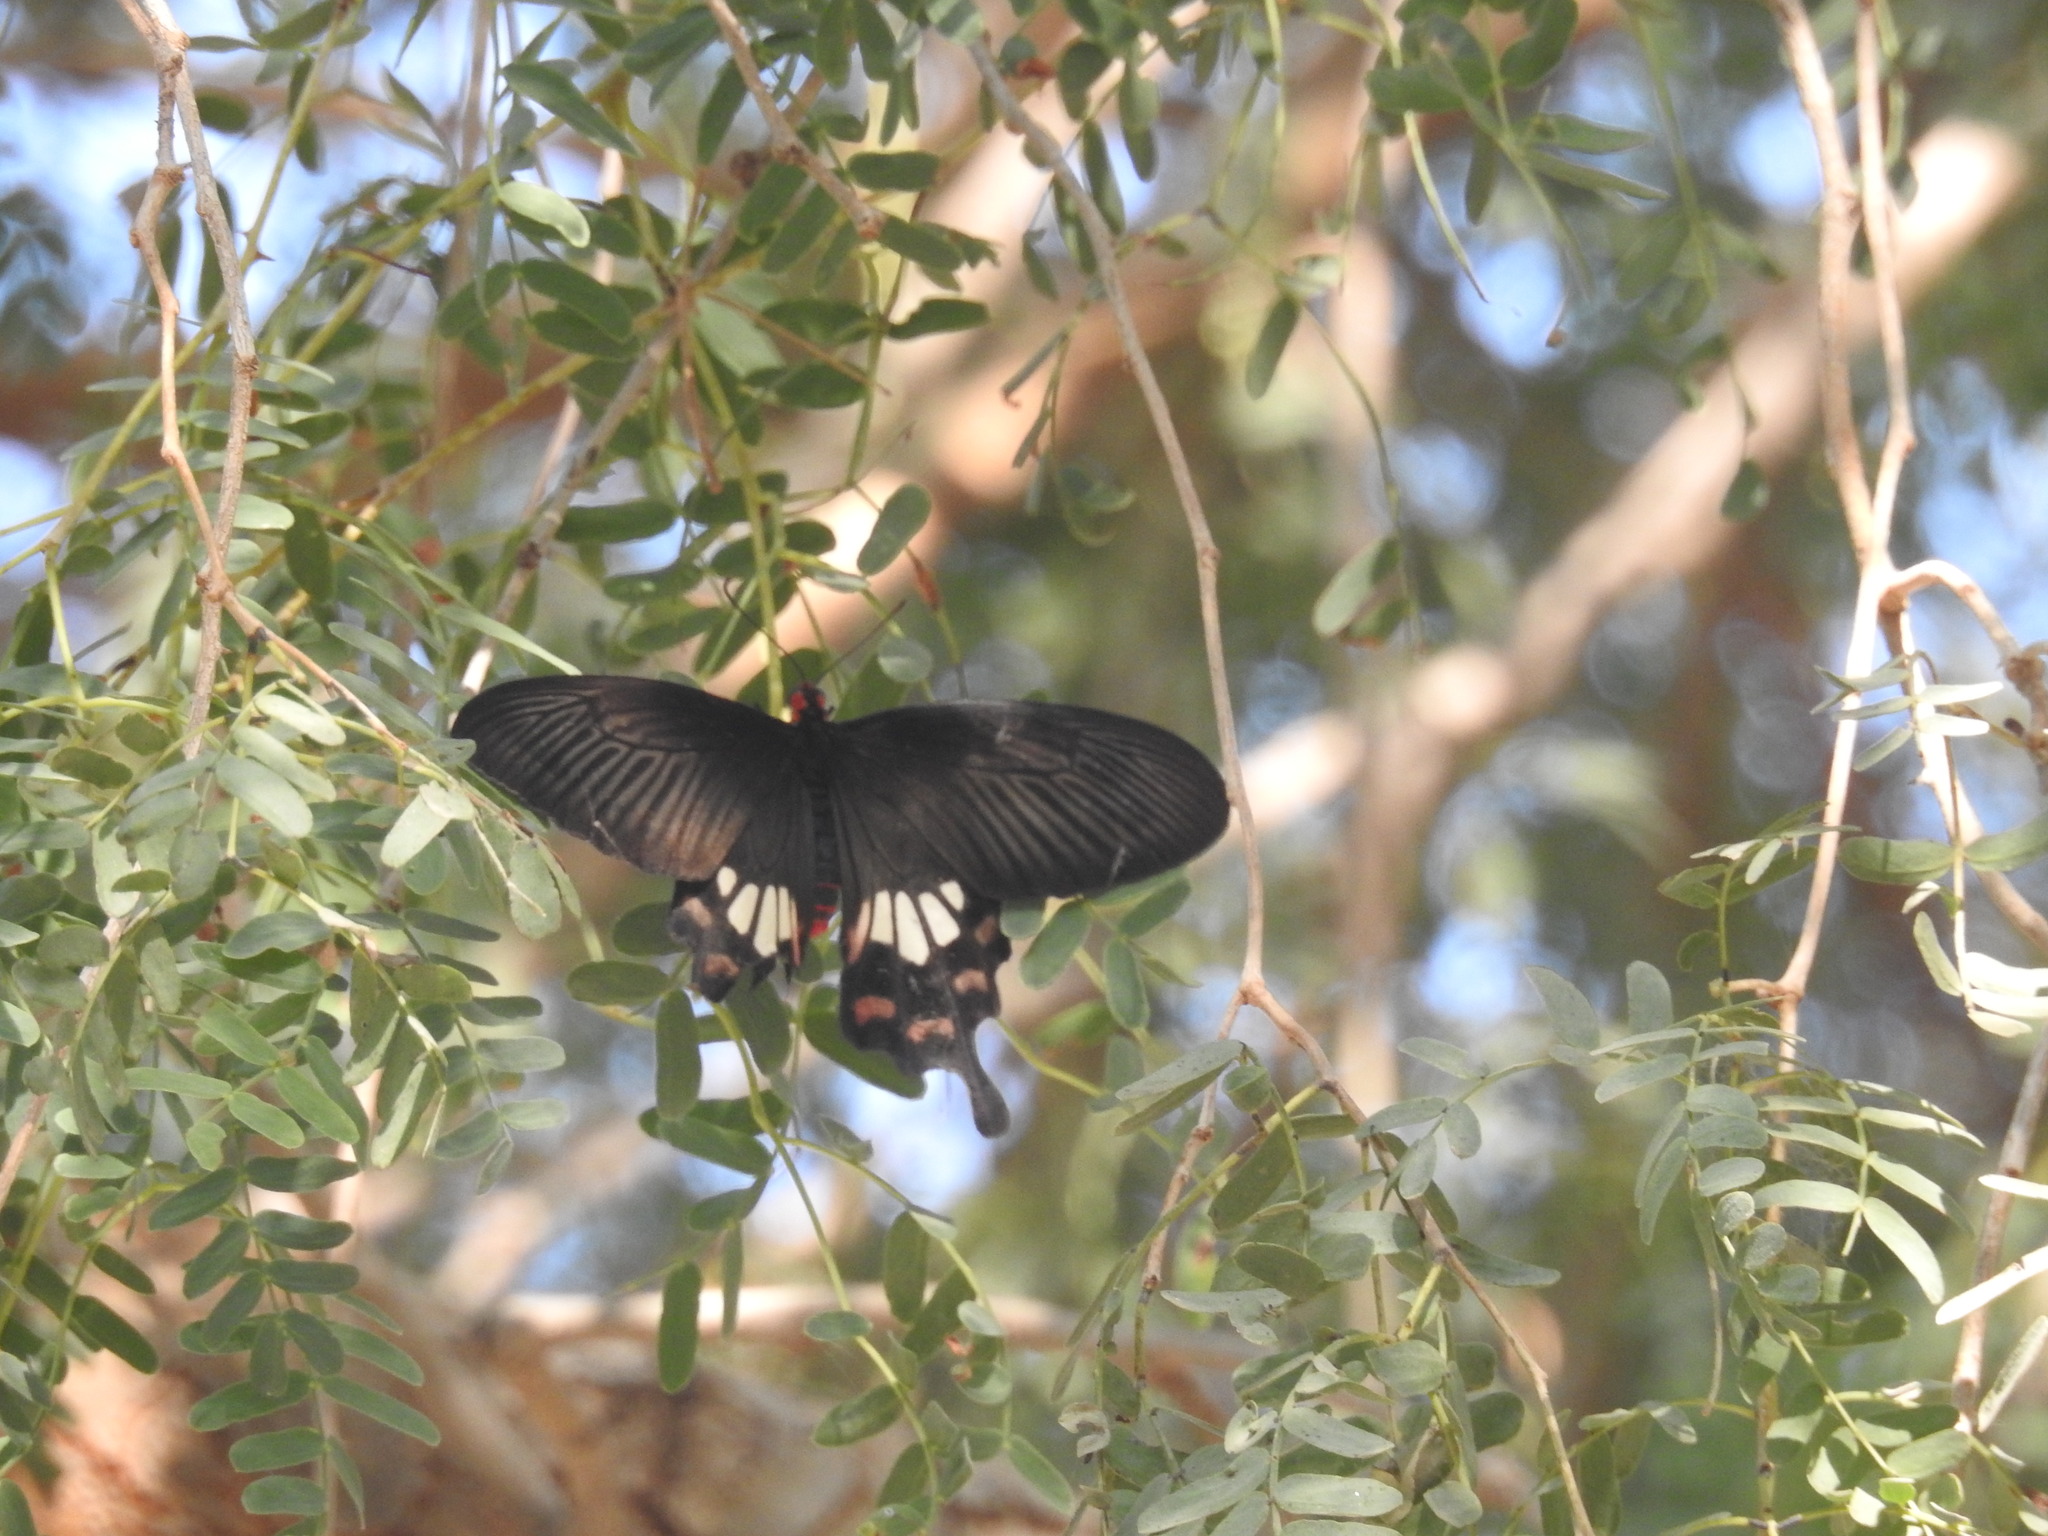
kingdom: Animalia
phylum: Arthropoda
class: Insecta
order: Lepidoptera
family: Papilionidae
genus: Pachliopta
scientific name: Pachliopta aristolochiae
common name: Common rose
